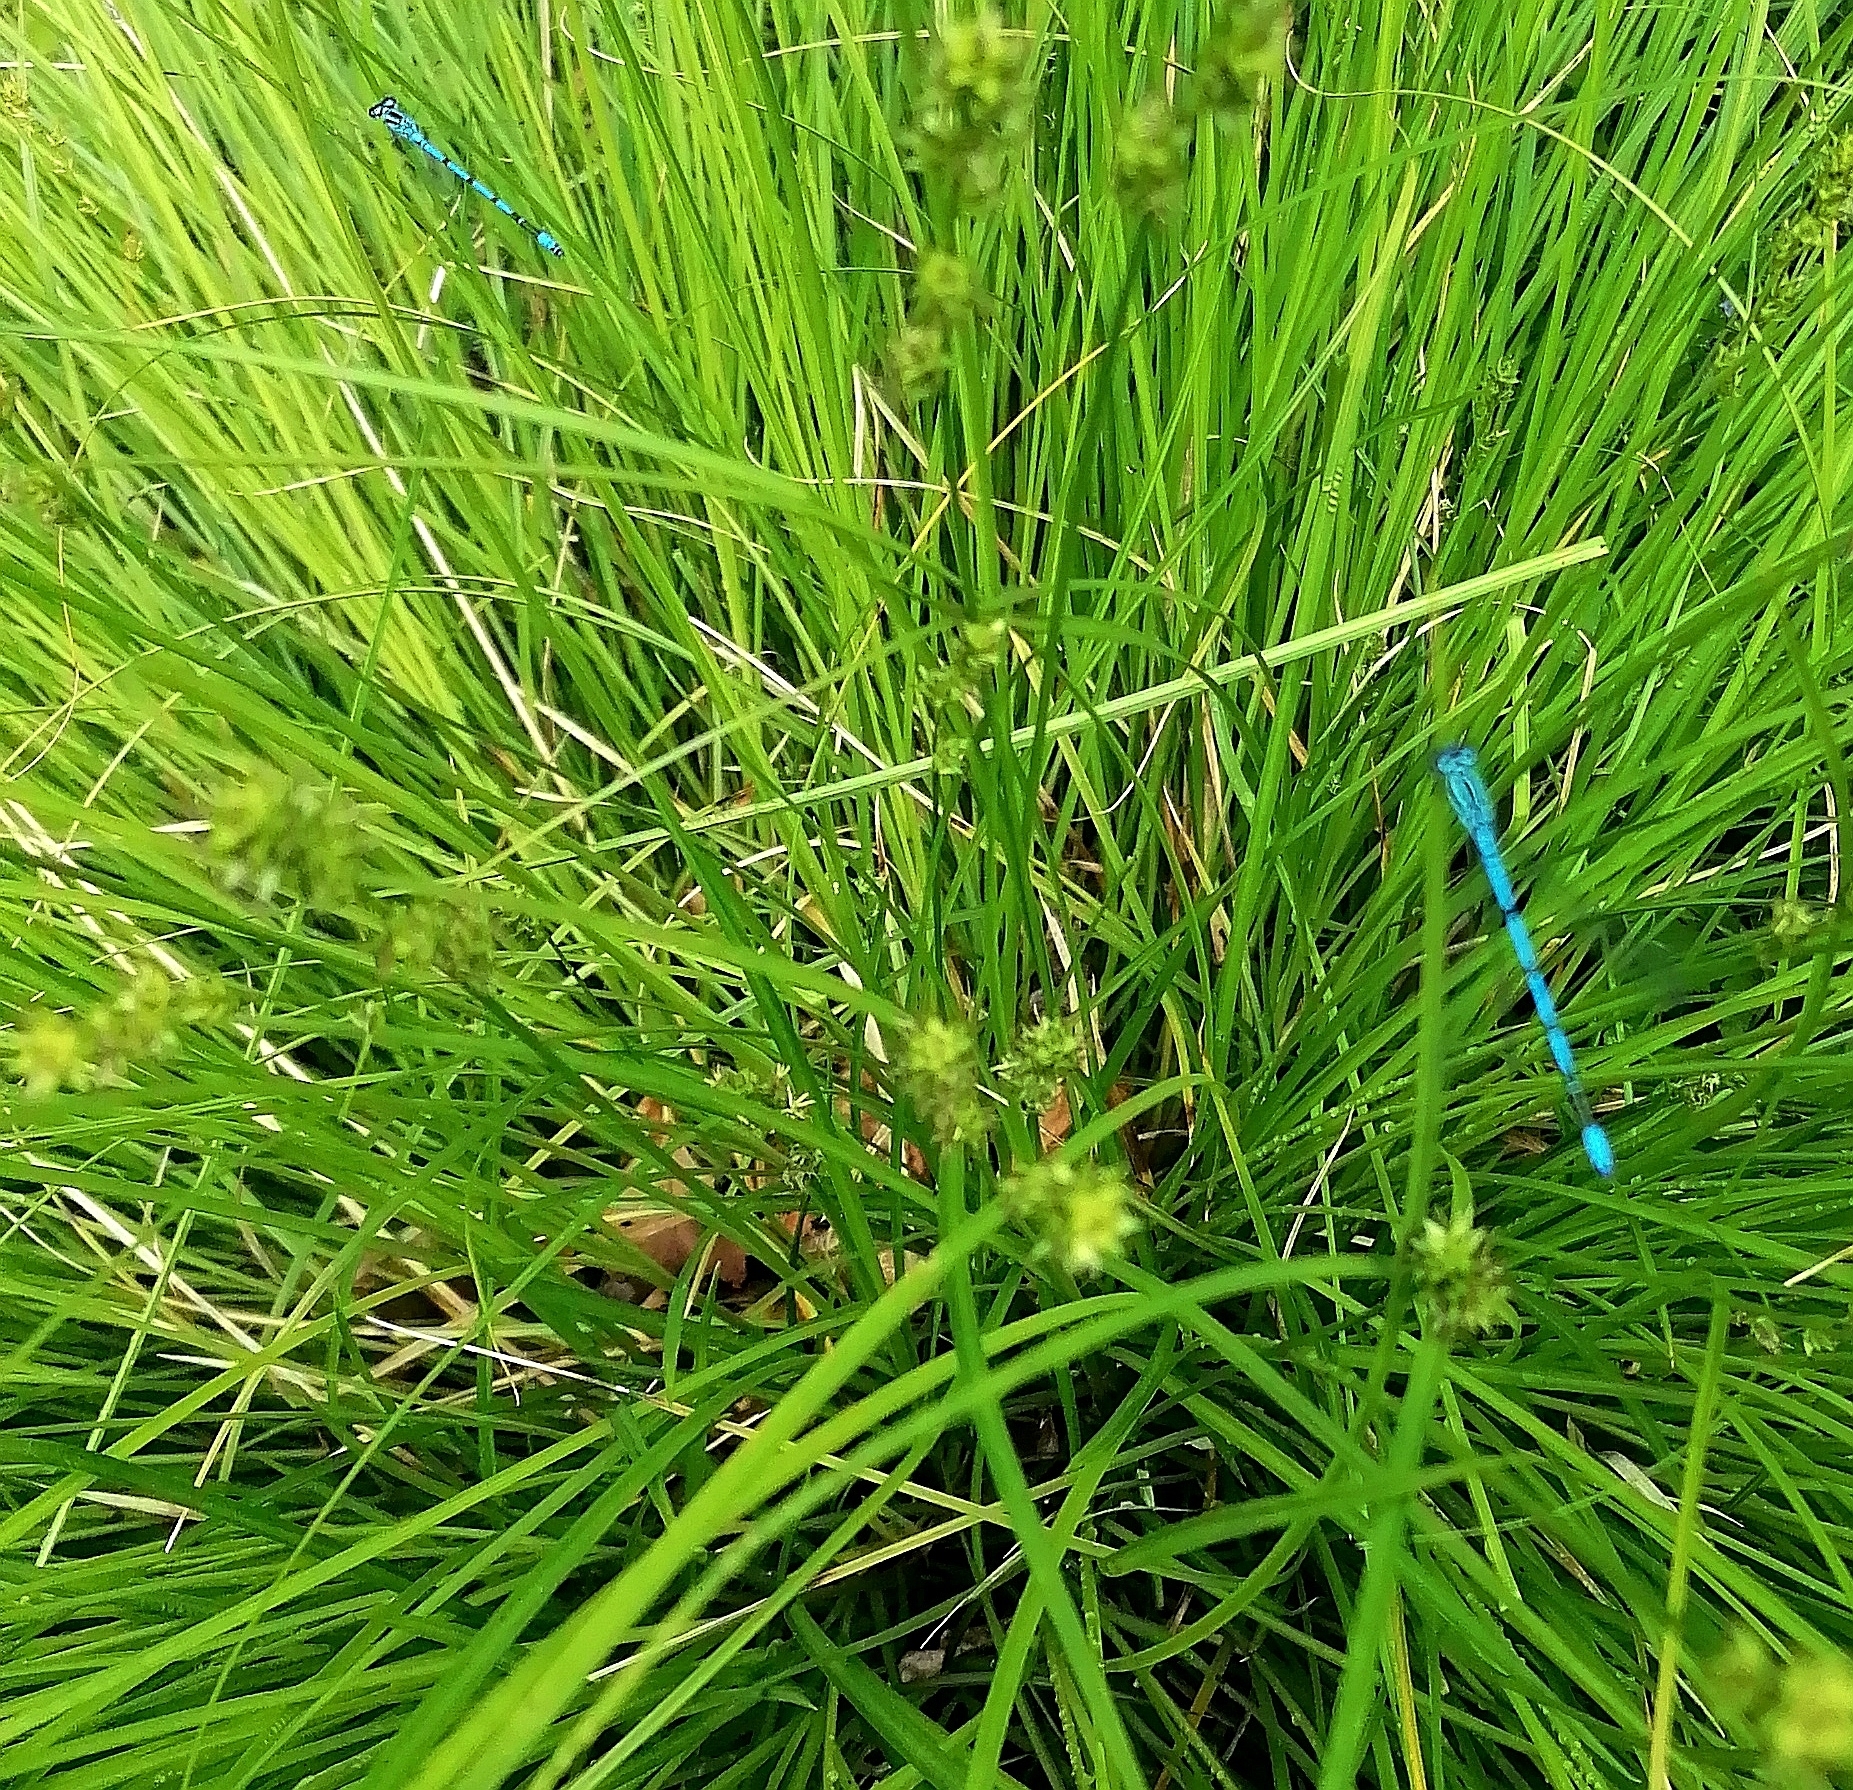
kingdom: Animalia
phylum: Arthropoda
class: Insecta
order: Odonata
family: Coenagrionidae
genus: Coenagrion
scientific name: Coenagrion puella
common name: Azure damselfly
